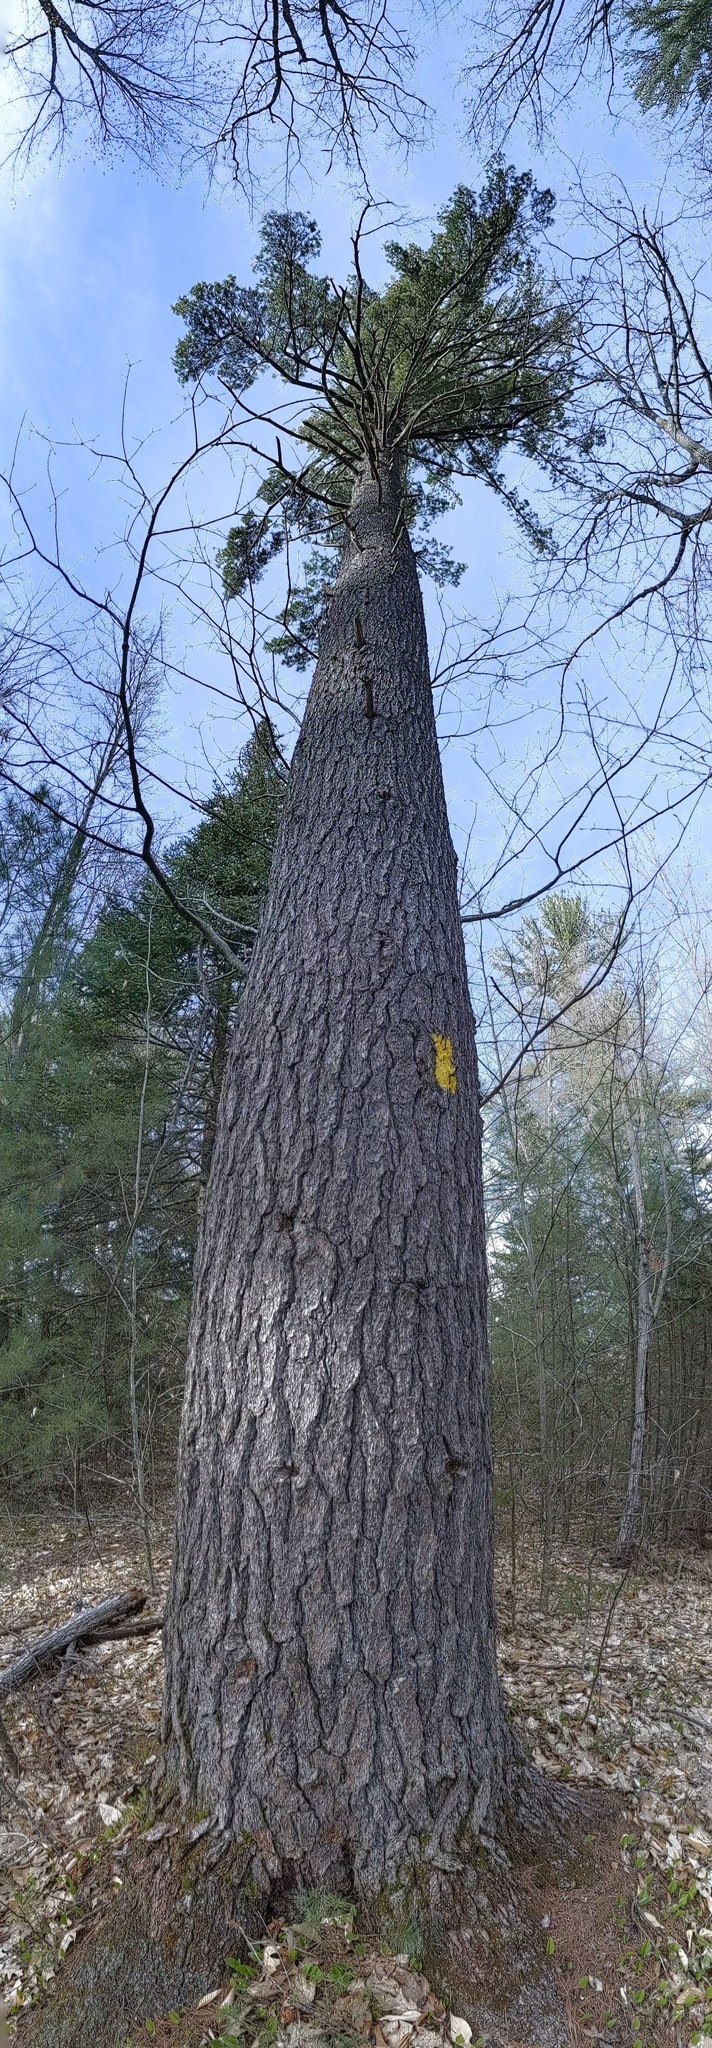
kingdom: Plantae
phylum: Tracheophyta
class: Pinopsida
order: Pinales
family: Pinaceae
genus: Pinus
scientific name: Pinus strobus
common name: Weymouth pine
